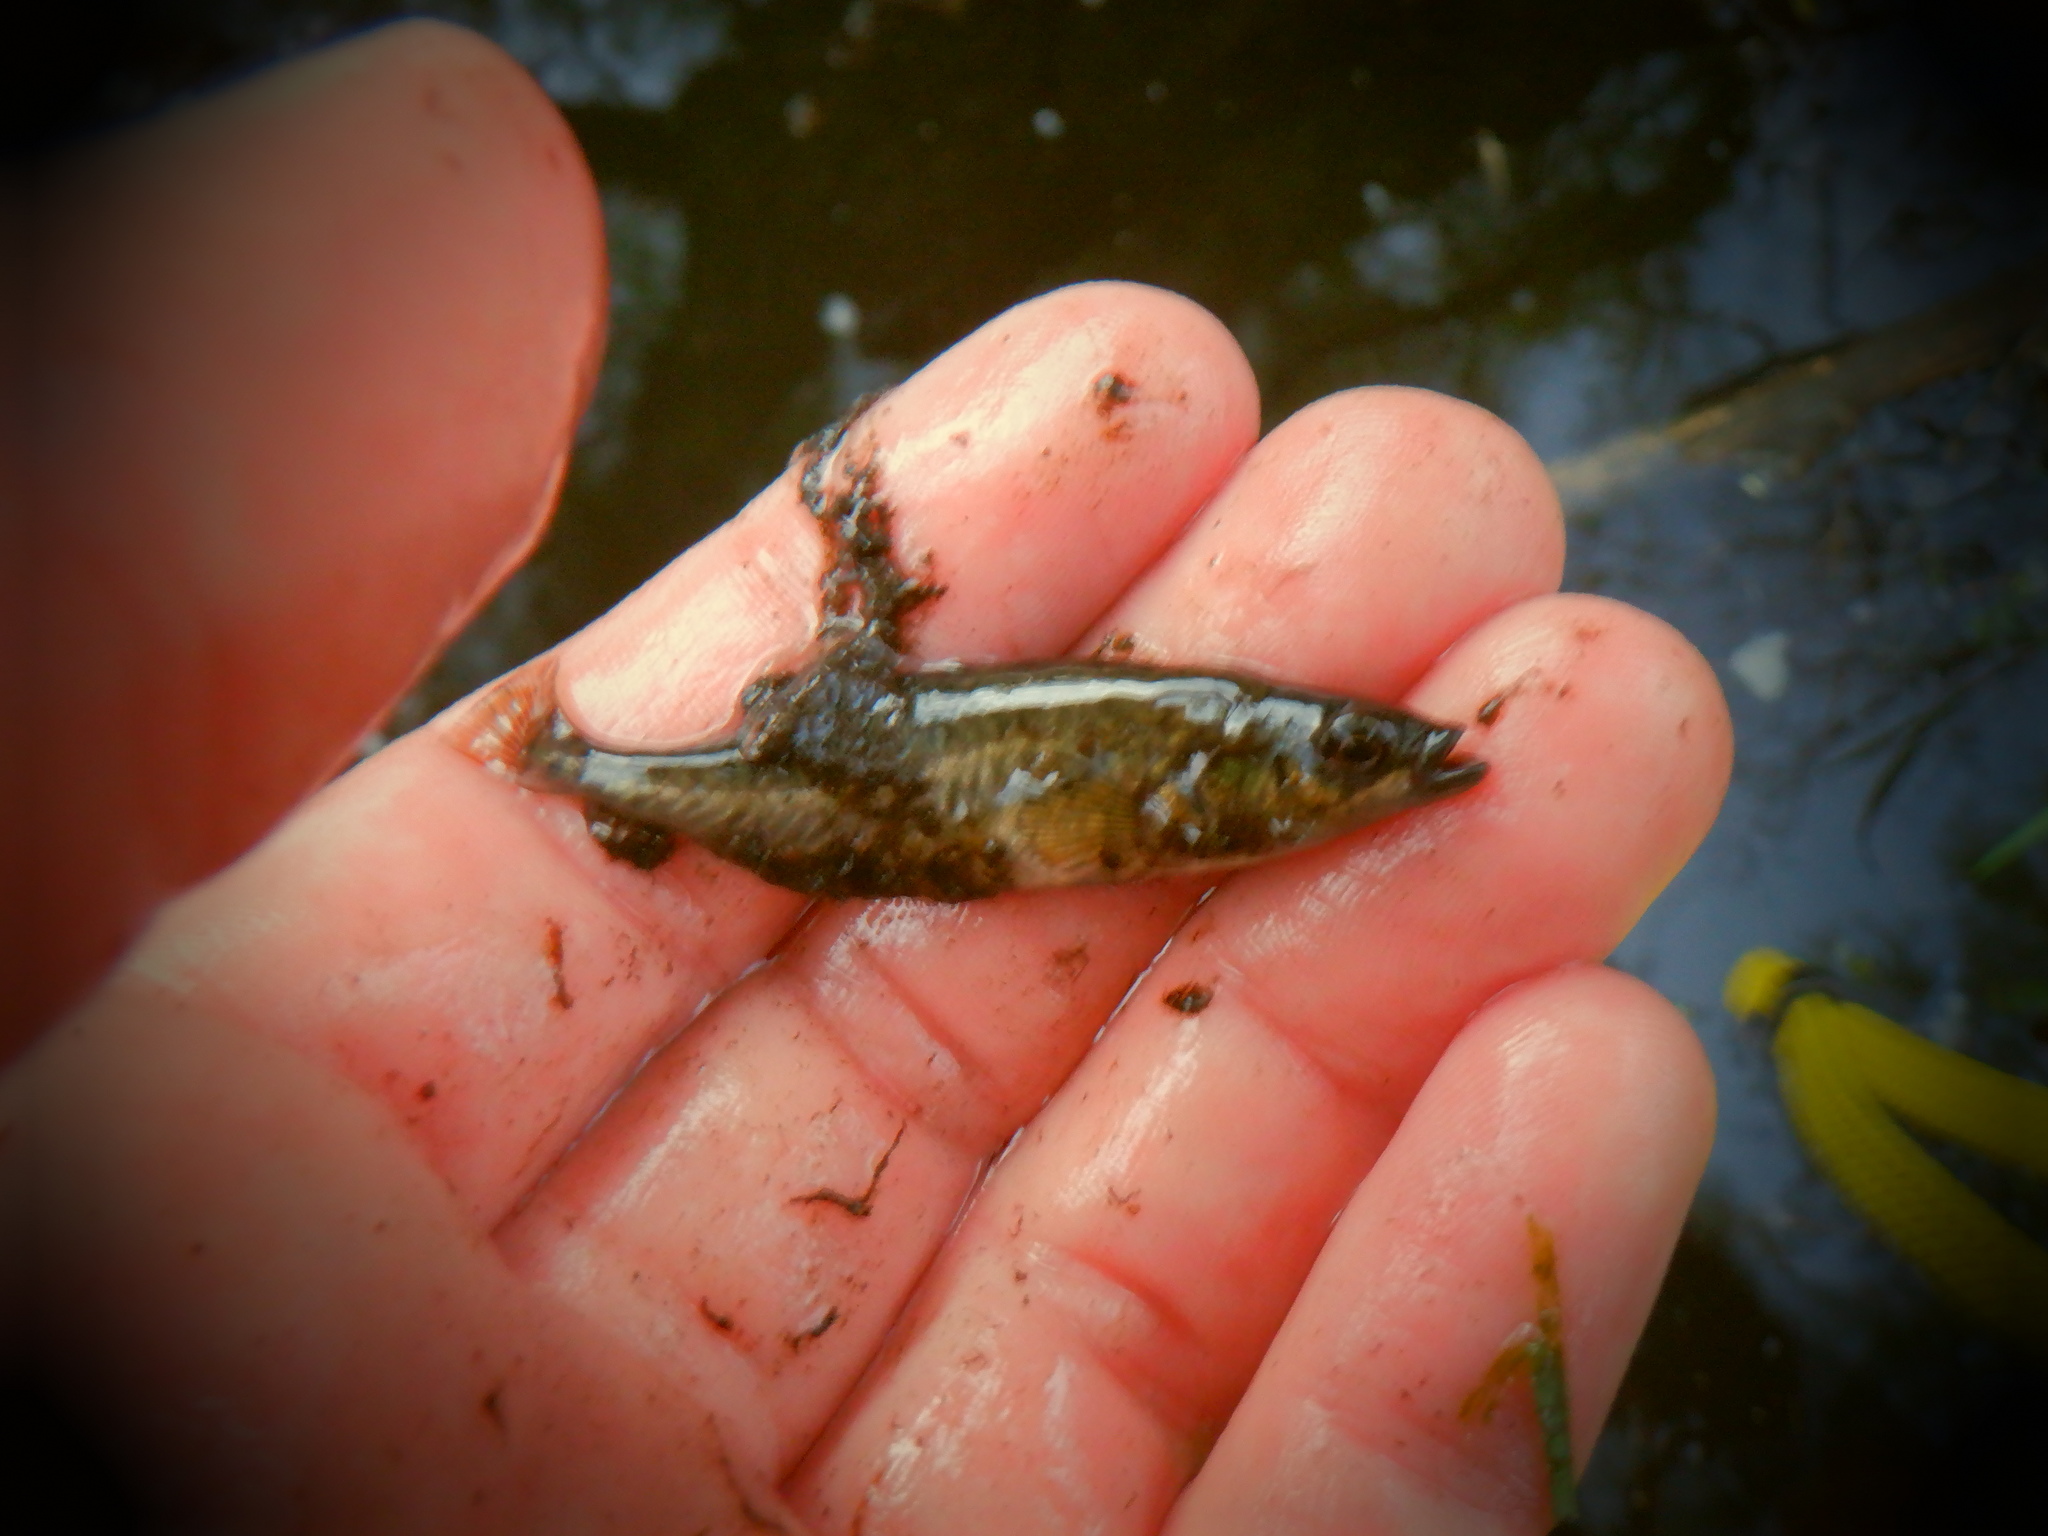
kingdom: Animalia
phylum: Chordata
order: Gasterosteiformes
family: Gasterosteidae
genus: Culaea
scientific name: Culaea inconstans
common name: Brook stickleback
